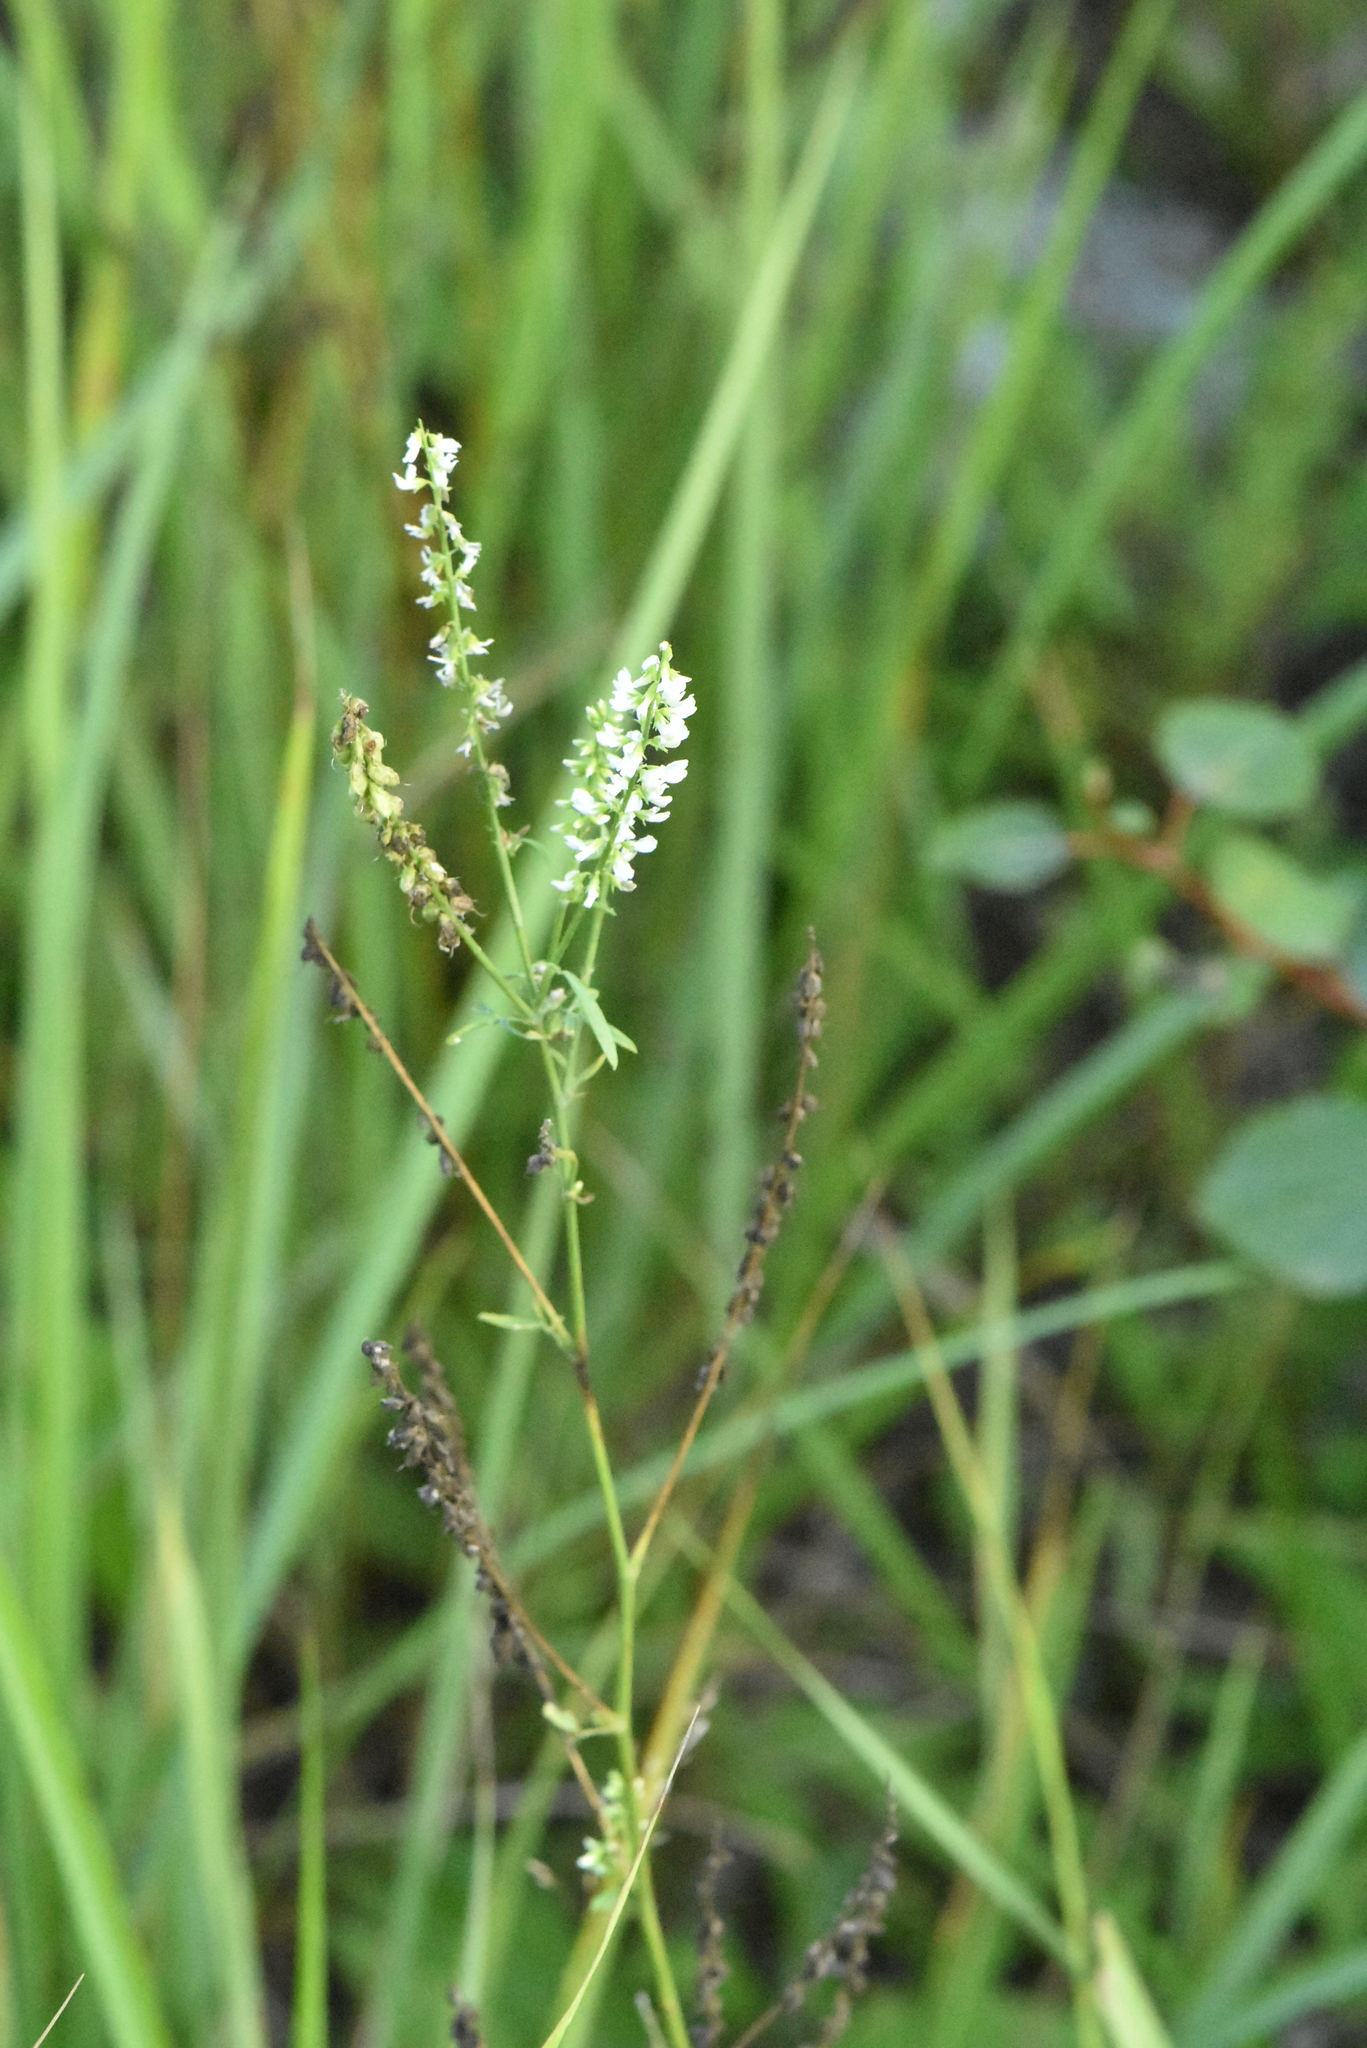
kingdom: Plantae
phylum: Tracheophyta
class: Magnoliopsida
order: Fabales
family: Fabaceae
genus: Melilotus
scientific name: Melilotus albus
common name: White melilot
